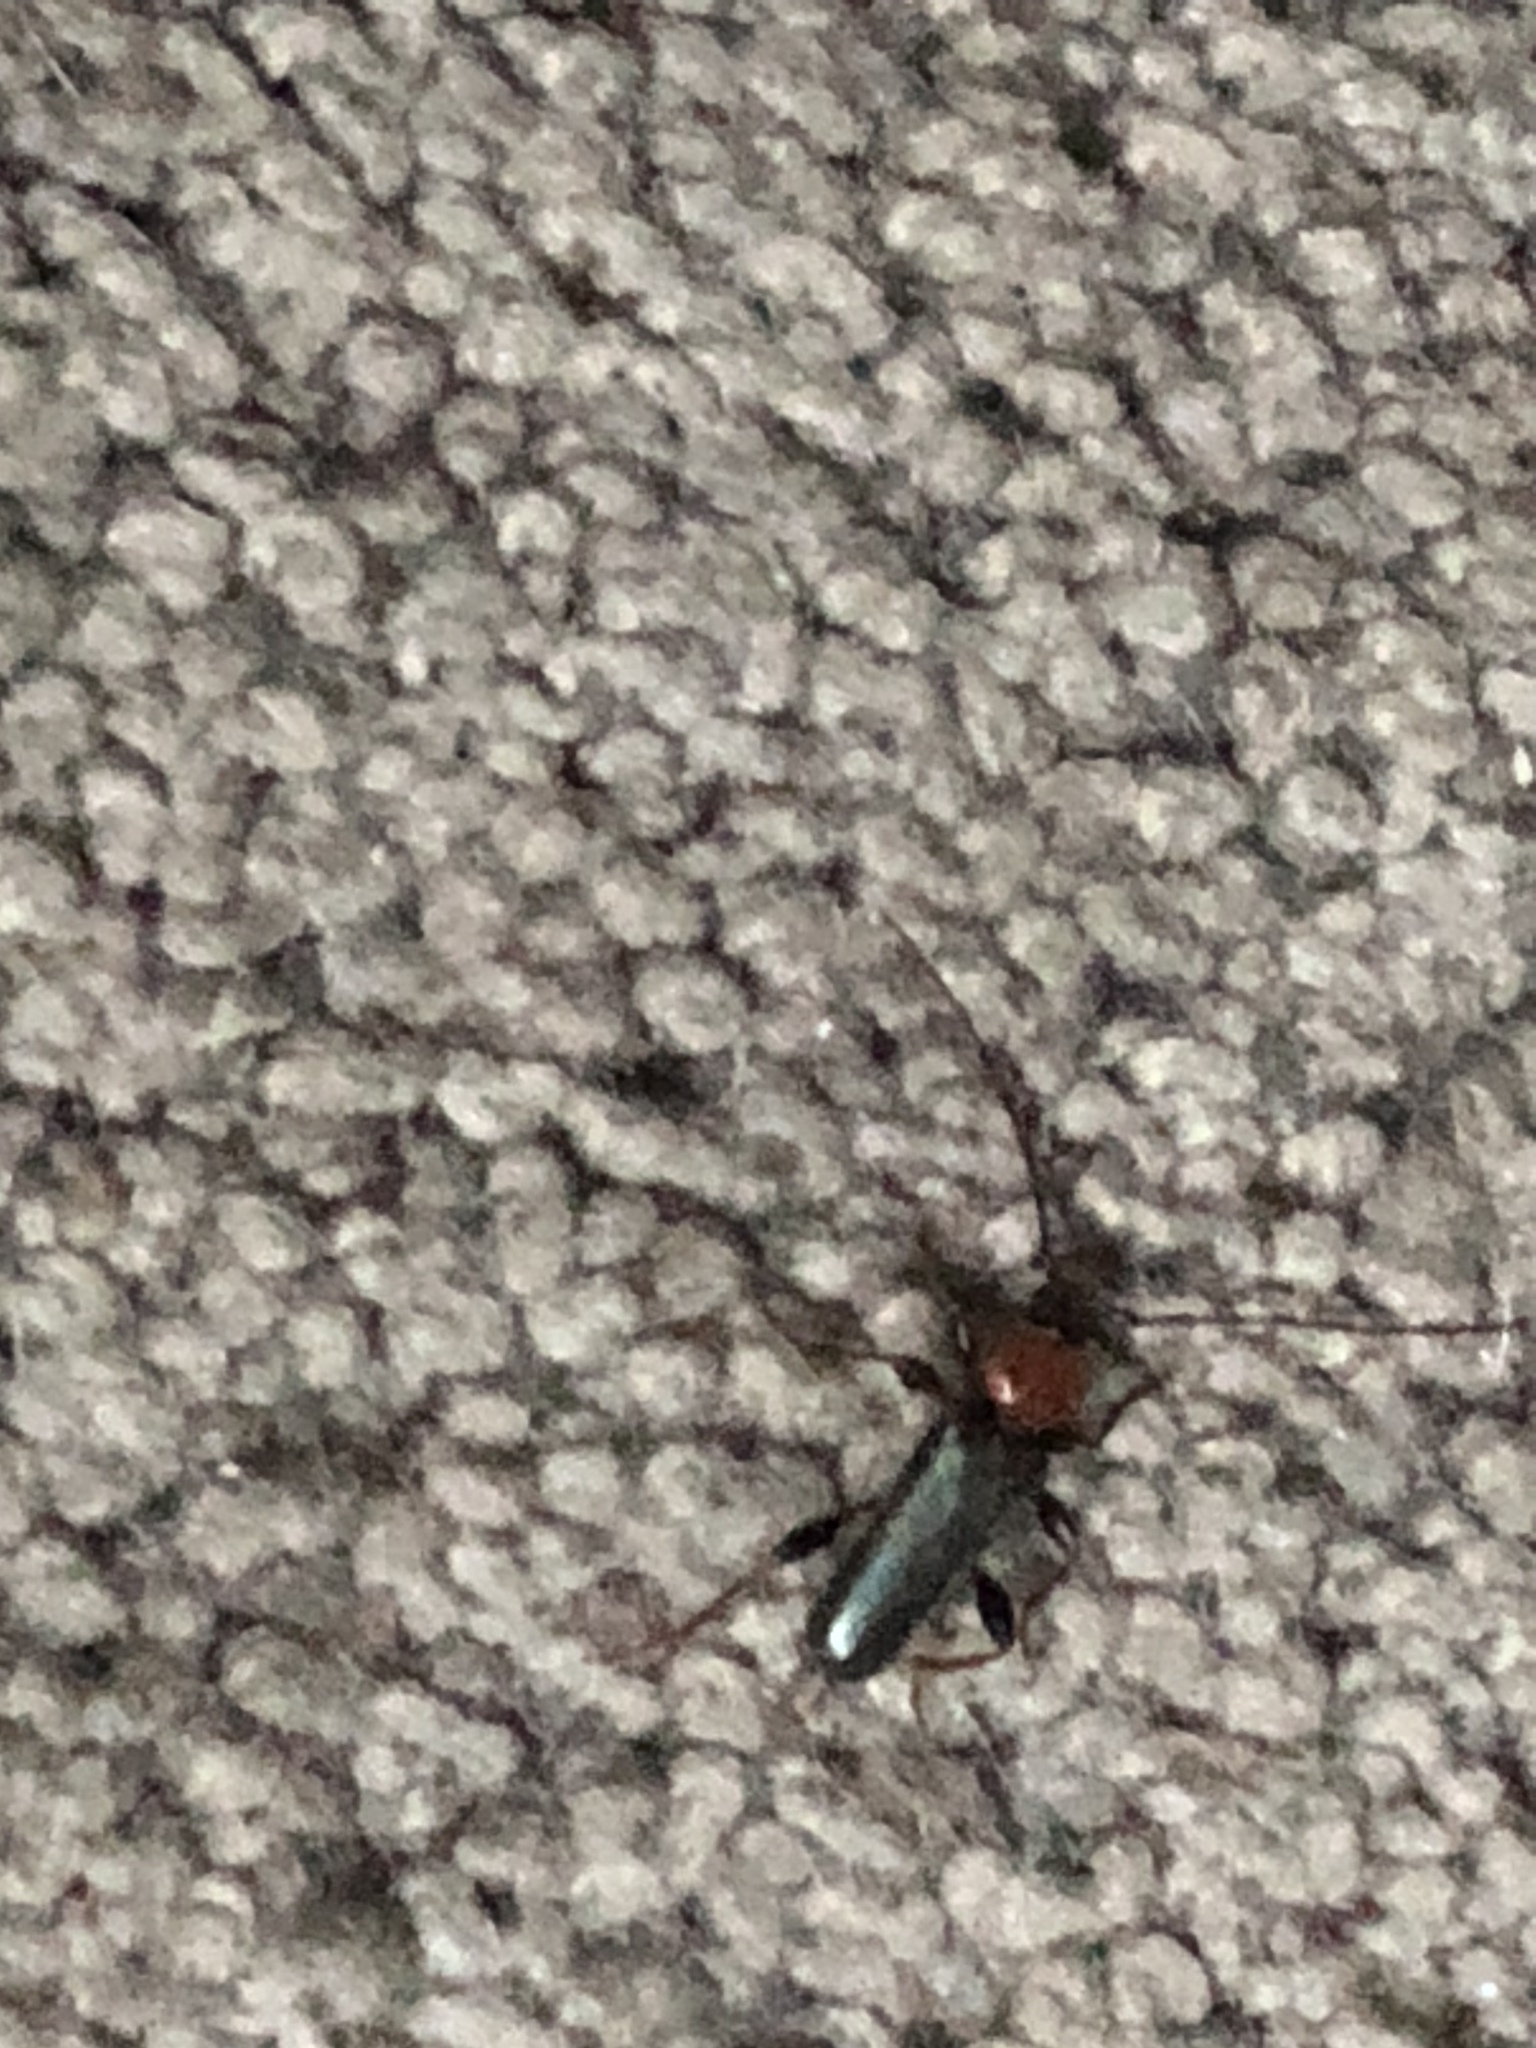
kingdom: Animalia
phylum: Arthropoda
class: Insecta
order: Coleoptera
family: Cerambycidae
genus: Phymatodes
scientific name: Phymatodes testaceus
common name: Long-horned beetle
